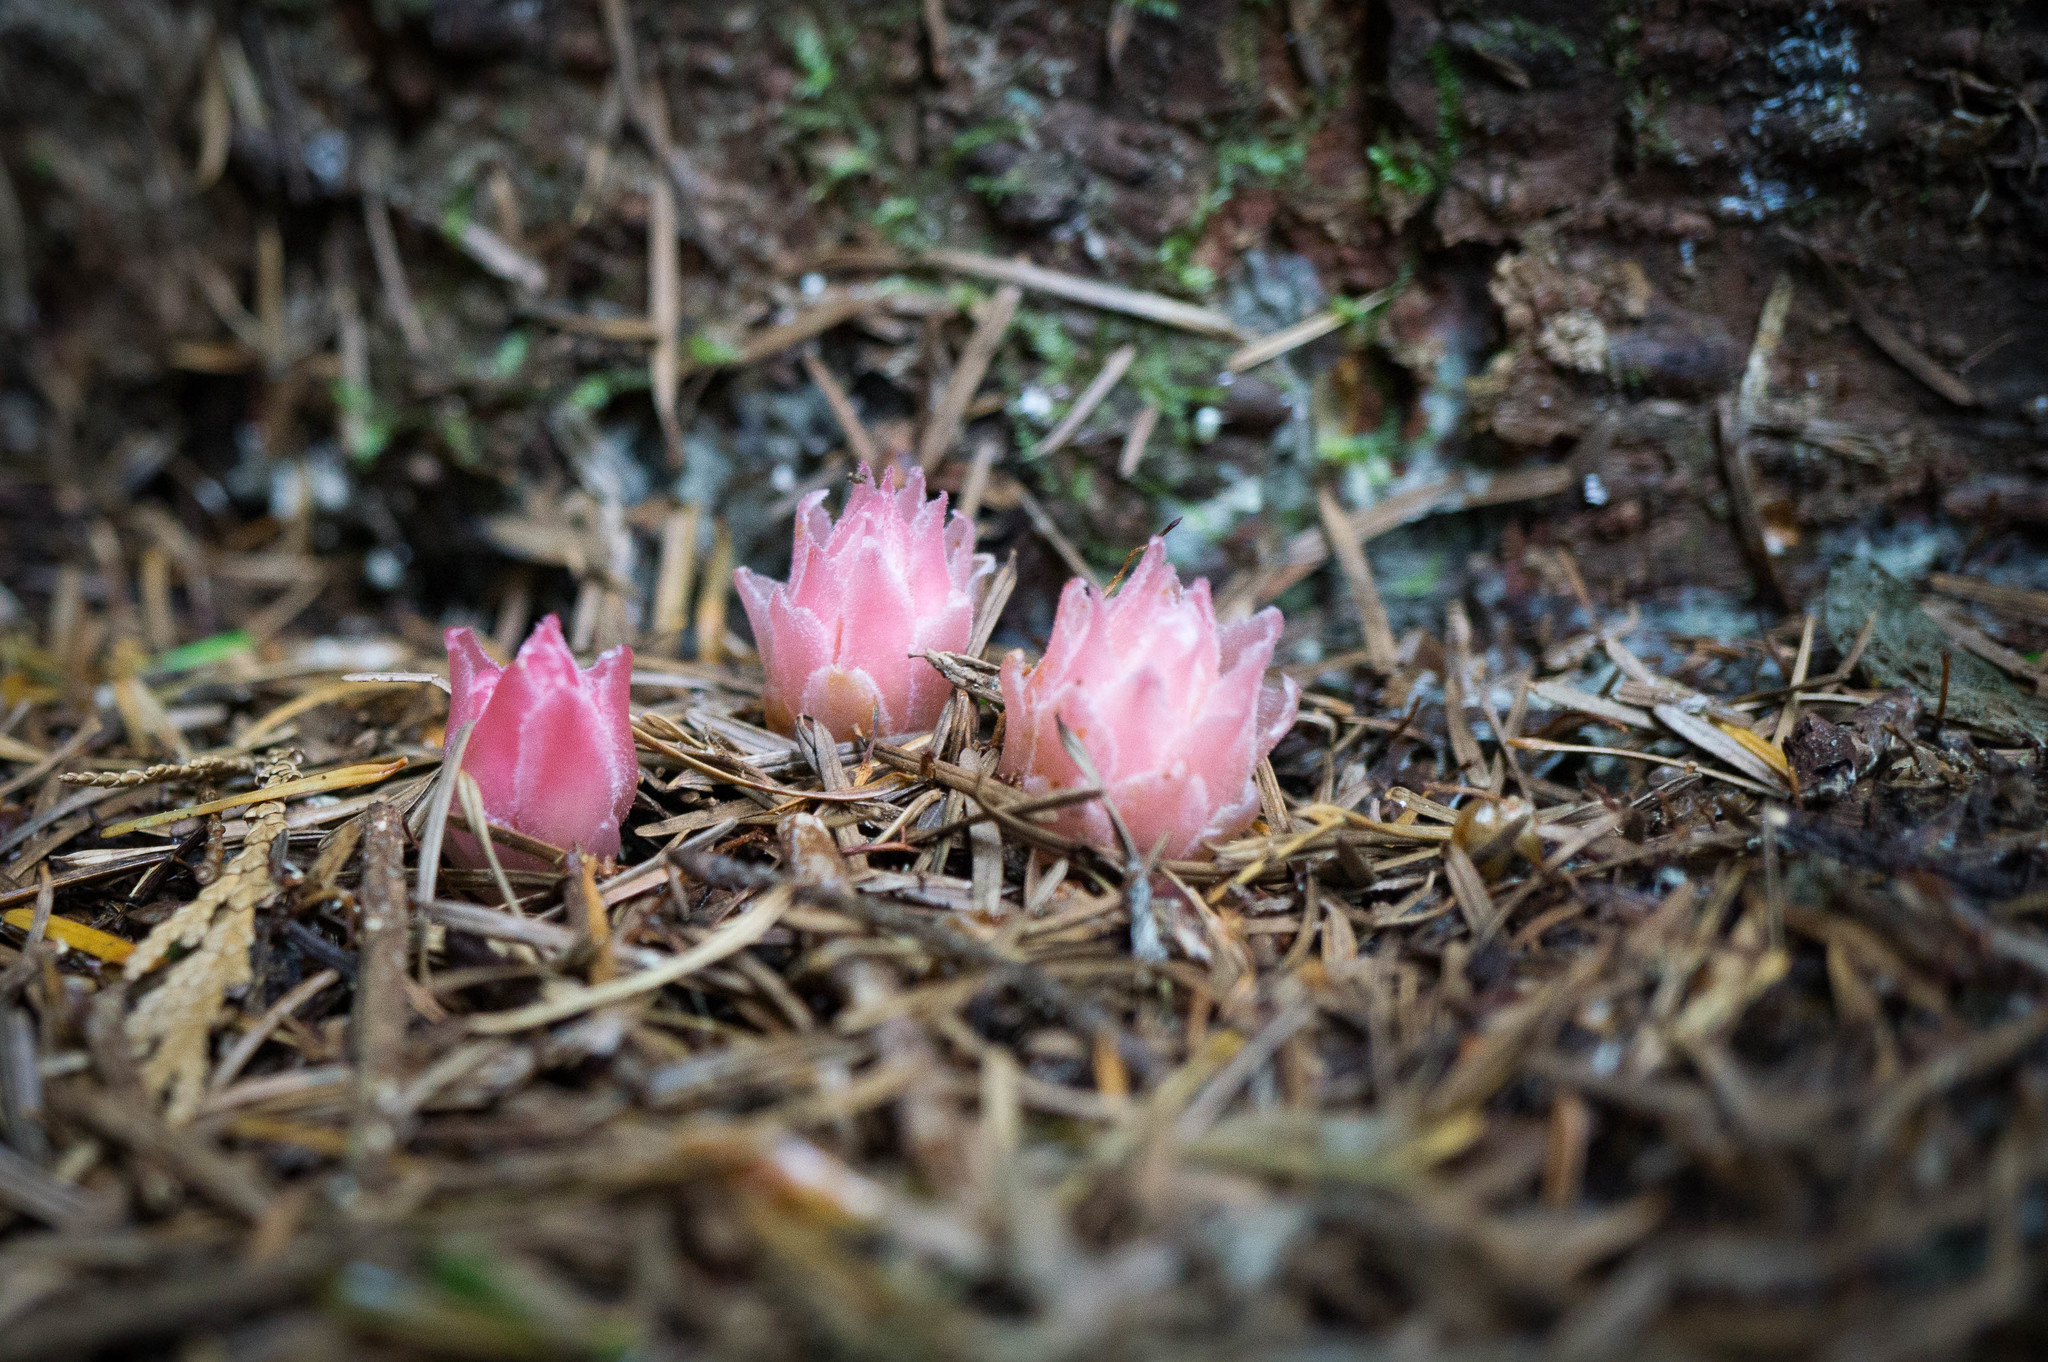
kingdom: Plantae
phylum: Tracheophyta
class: Magnoliopsida
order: Ericales
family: Ericaceae
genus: Hemitomes
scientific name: Hemitomes congestum
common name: Cone plant
